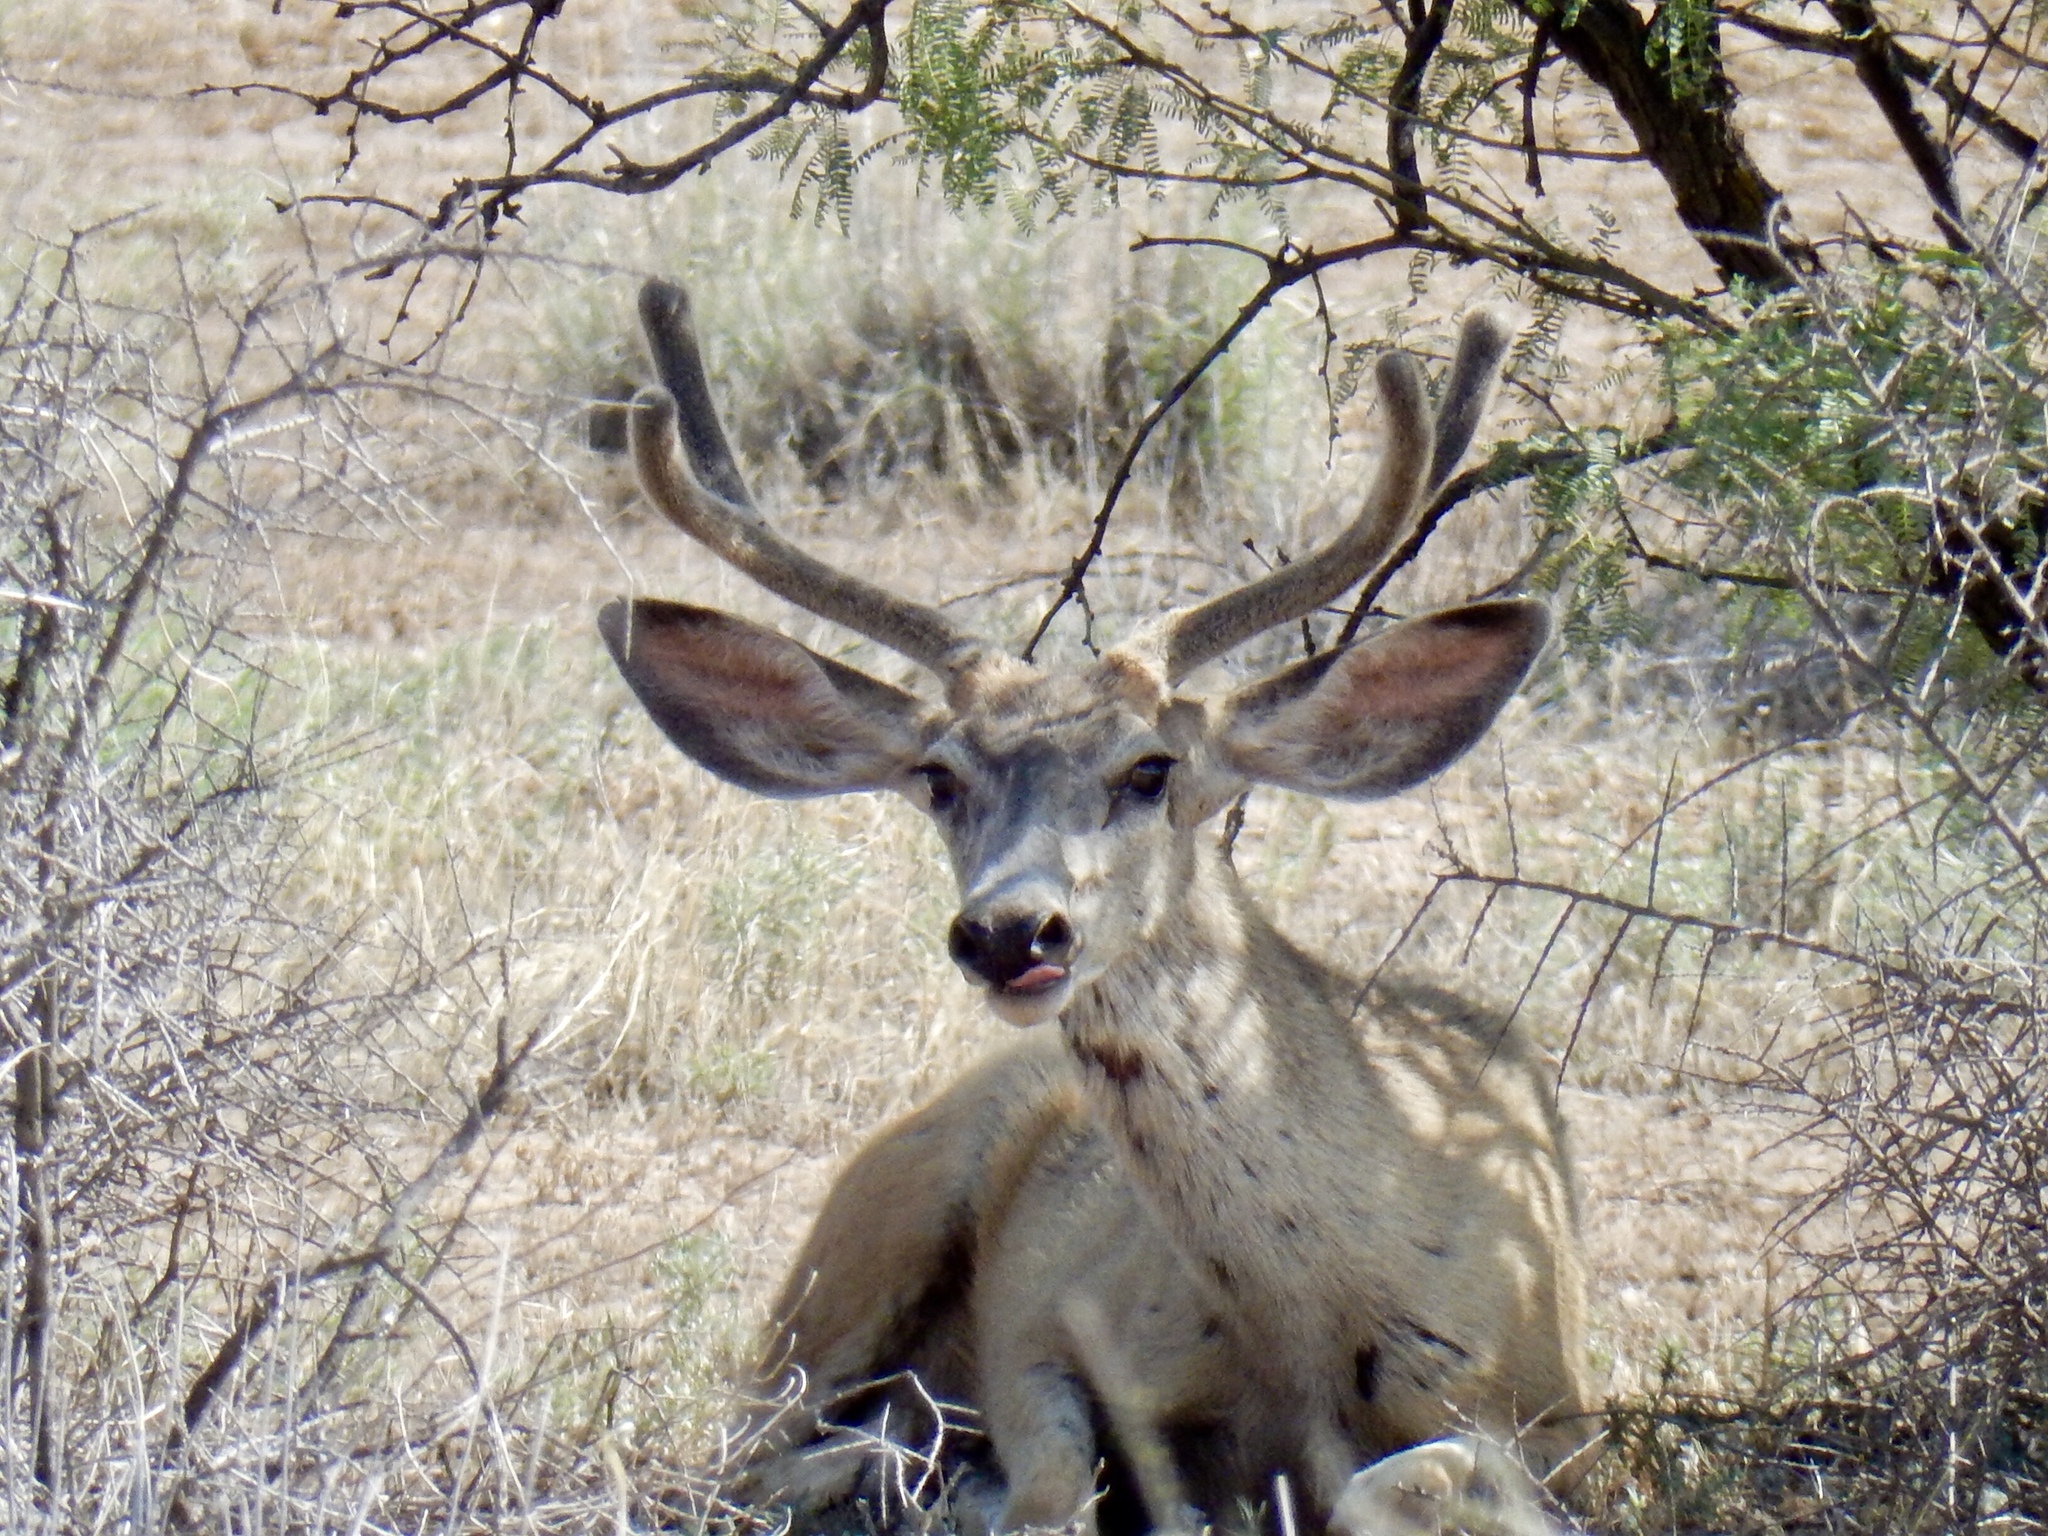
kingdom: Animalia
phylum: Chordata
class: Mammalia
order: Artiodactyla
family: Cervidae
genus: Odocoileus
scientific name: Odocoileus hemionus
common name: Mule deer
